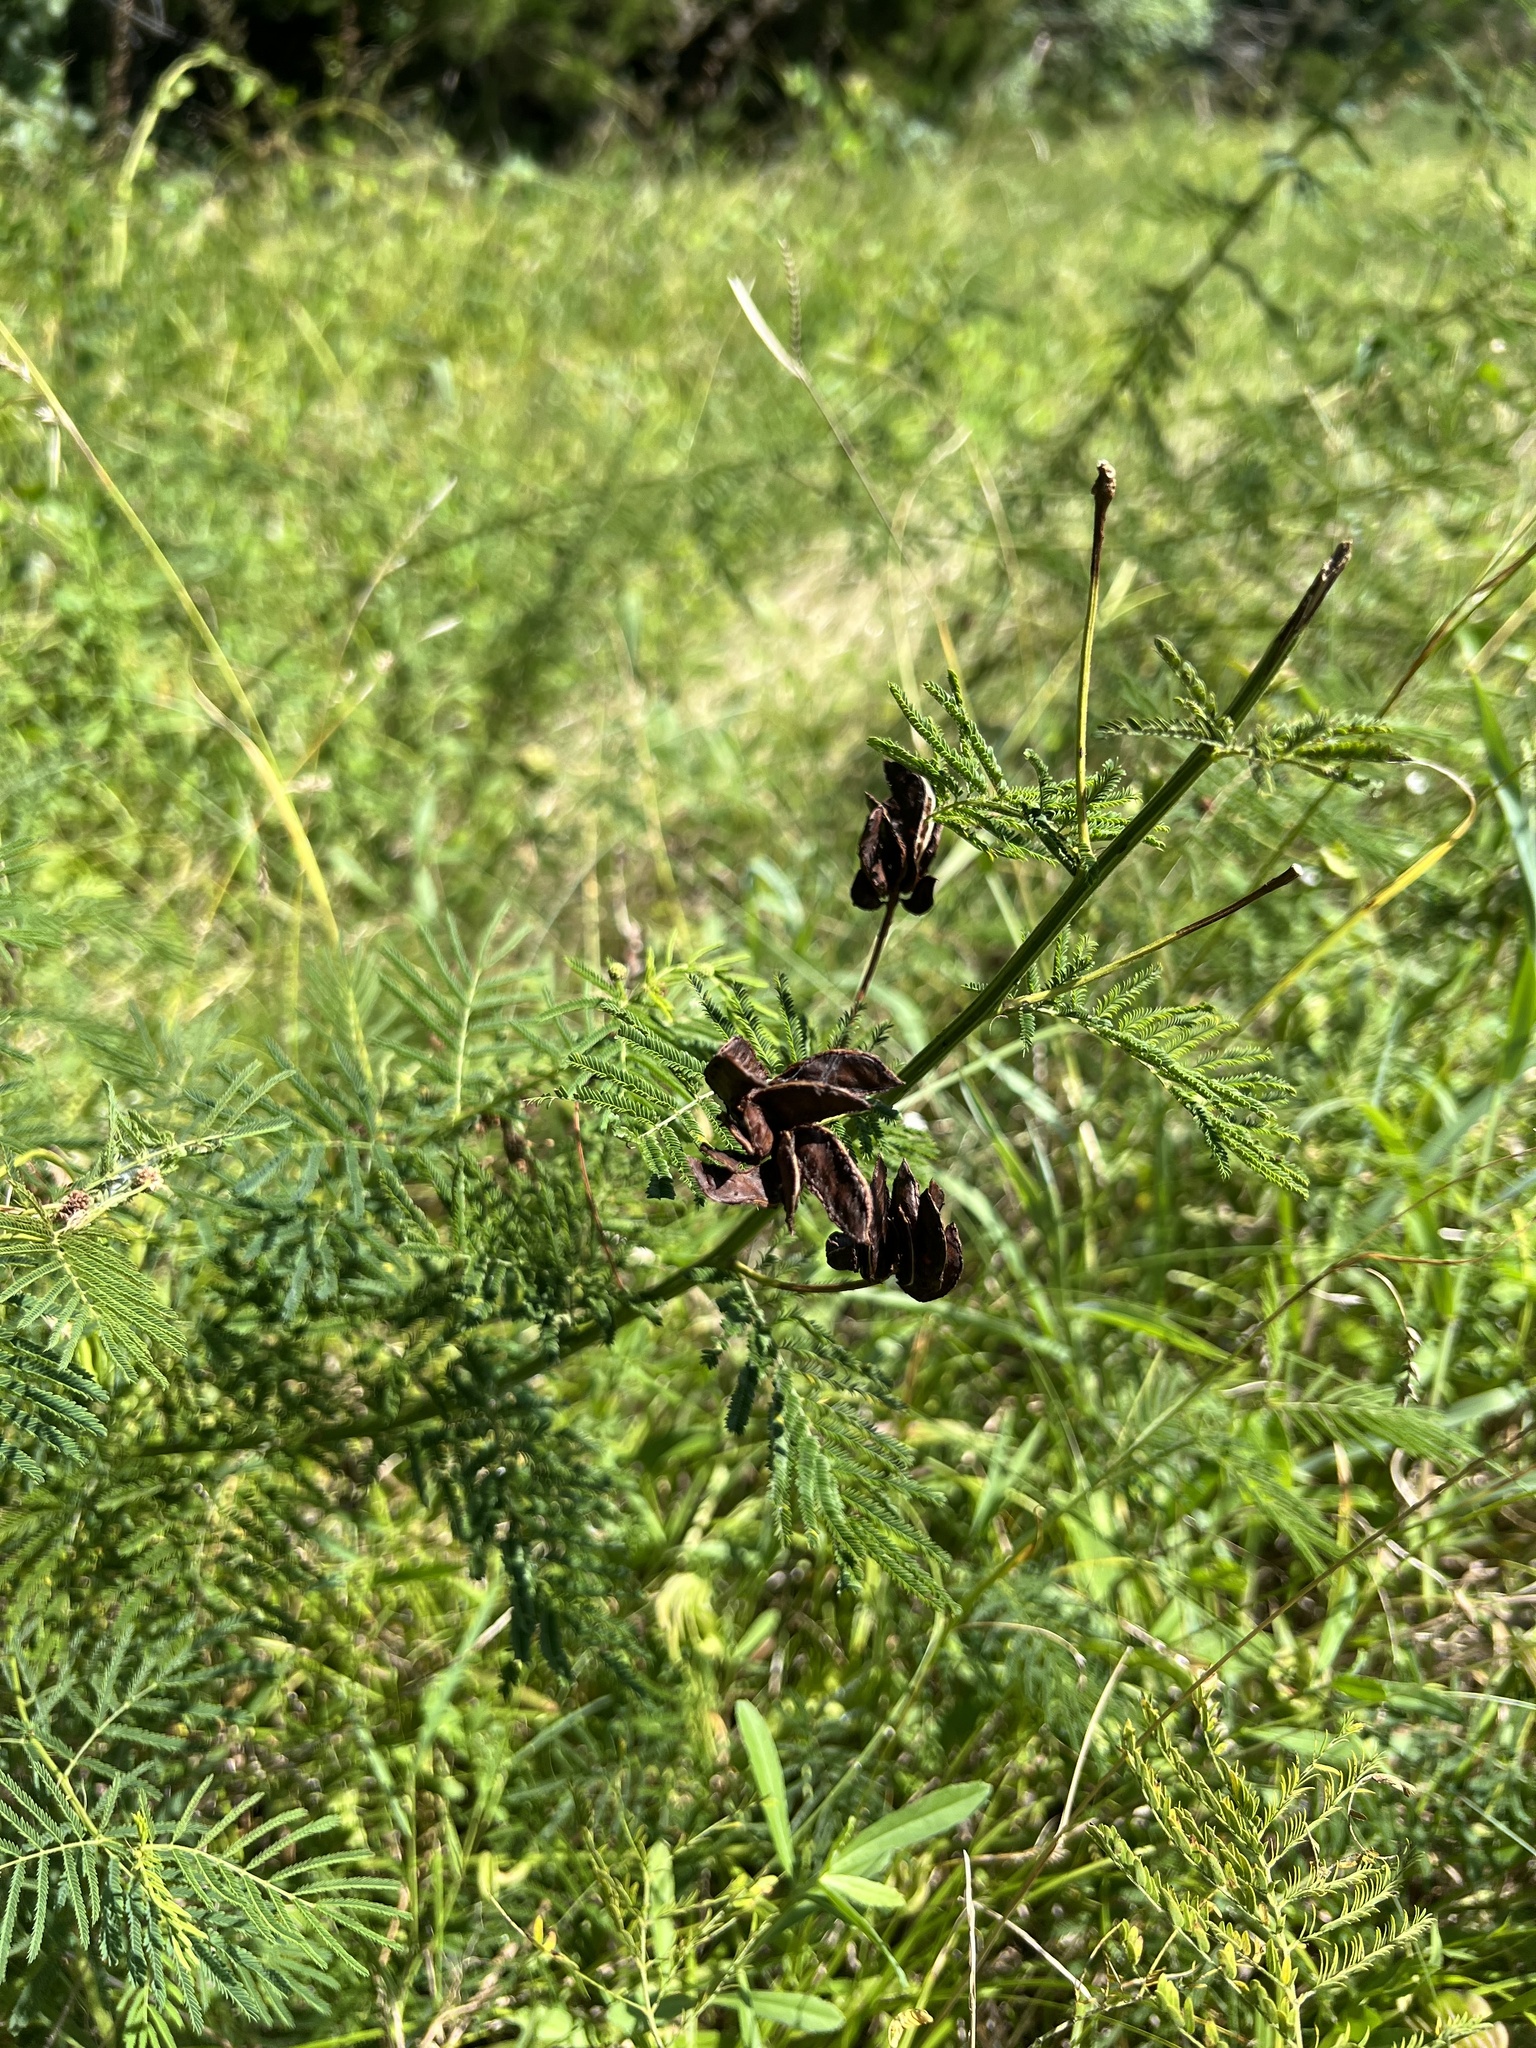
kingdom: Plantae
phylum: Tracheophyta
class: Magnoliopsida
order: Fabales
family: Fabaceae
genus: Desmanthus
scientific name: Desmanthus illinoensis
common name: Illinois bundle-flower
